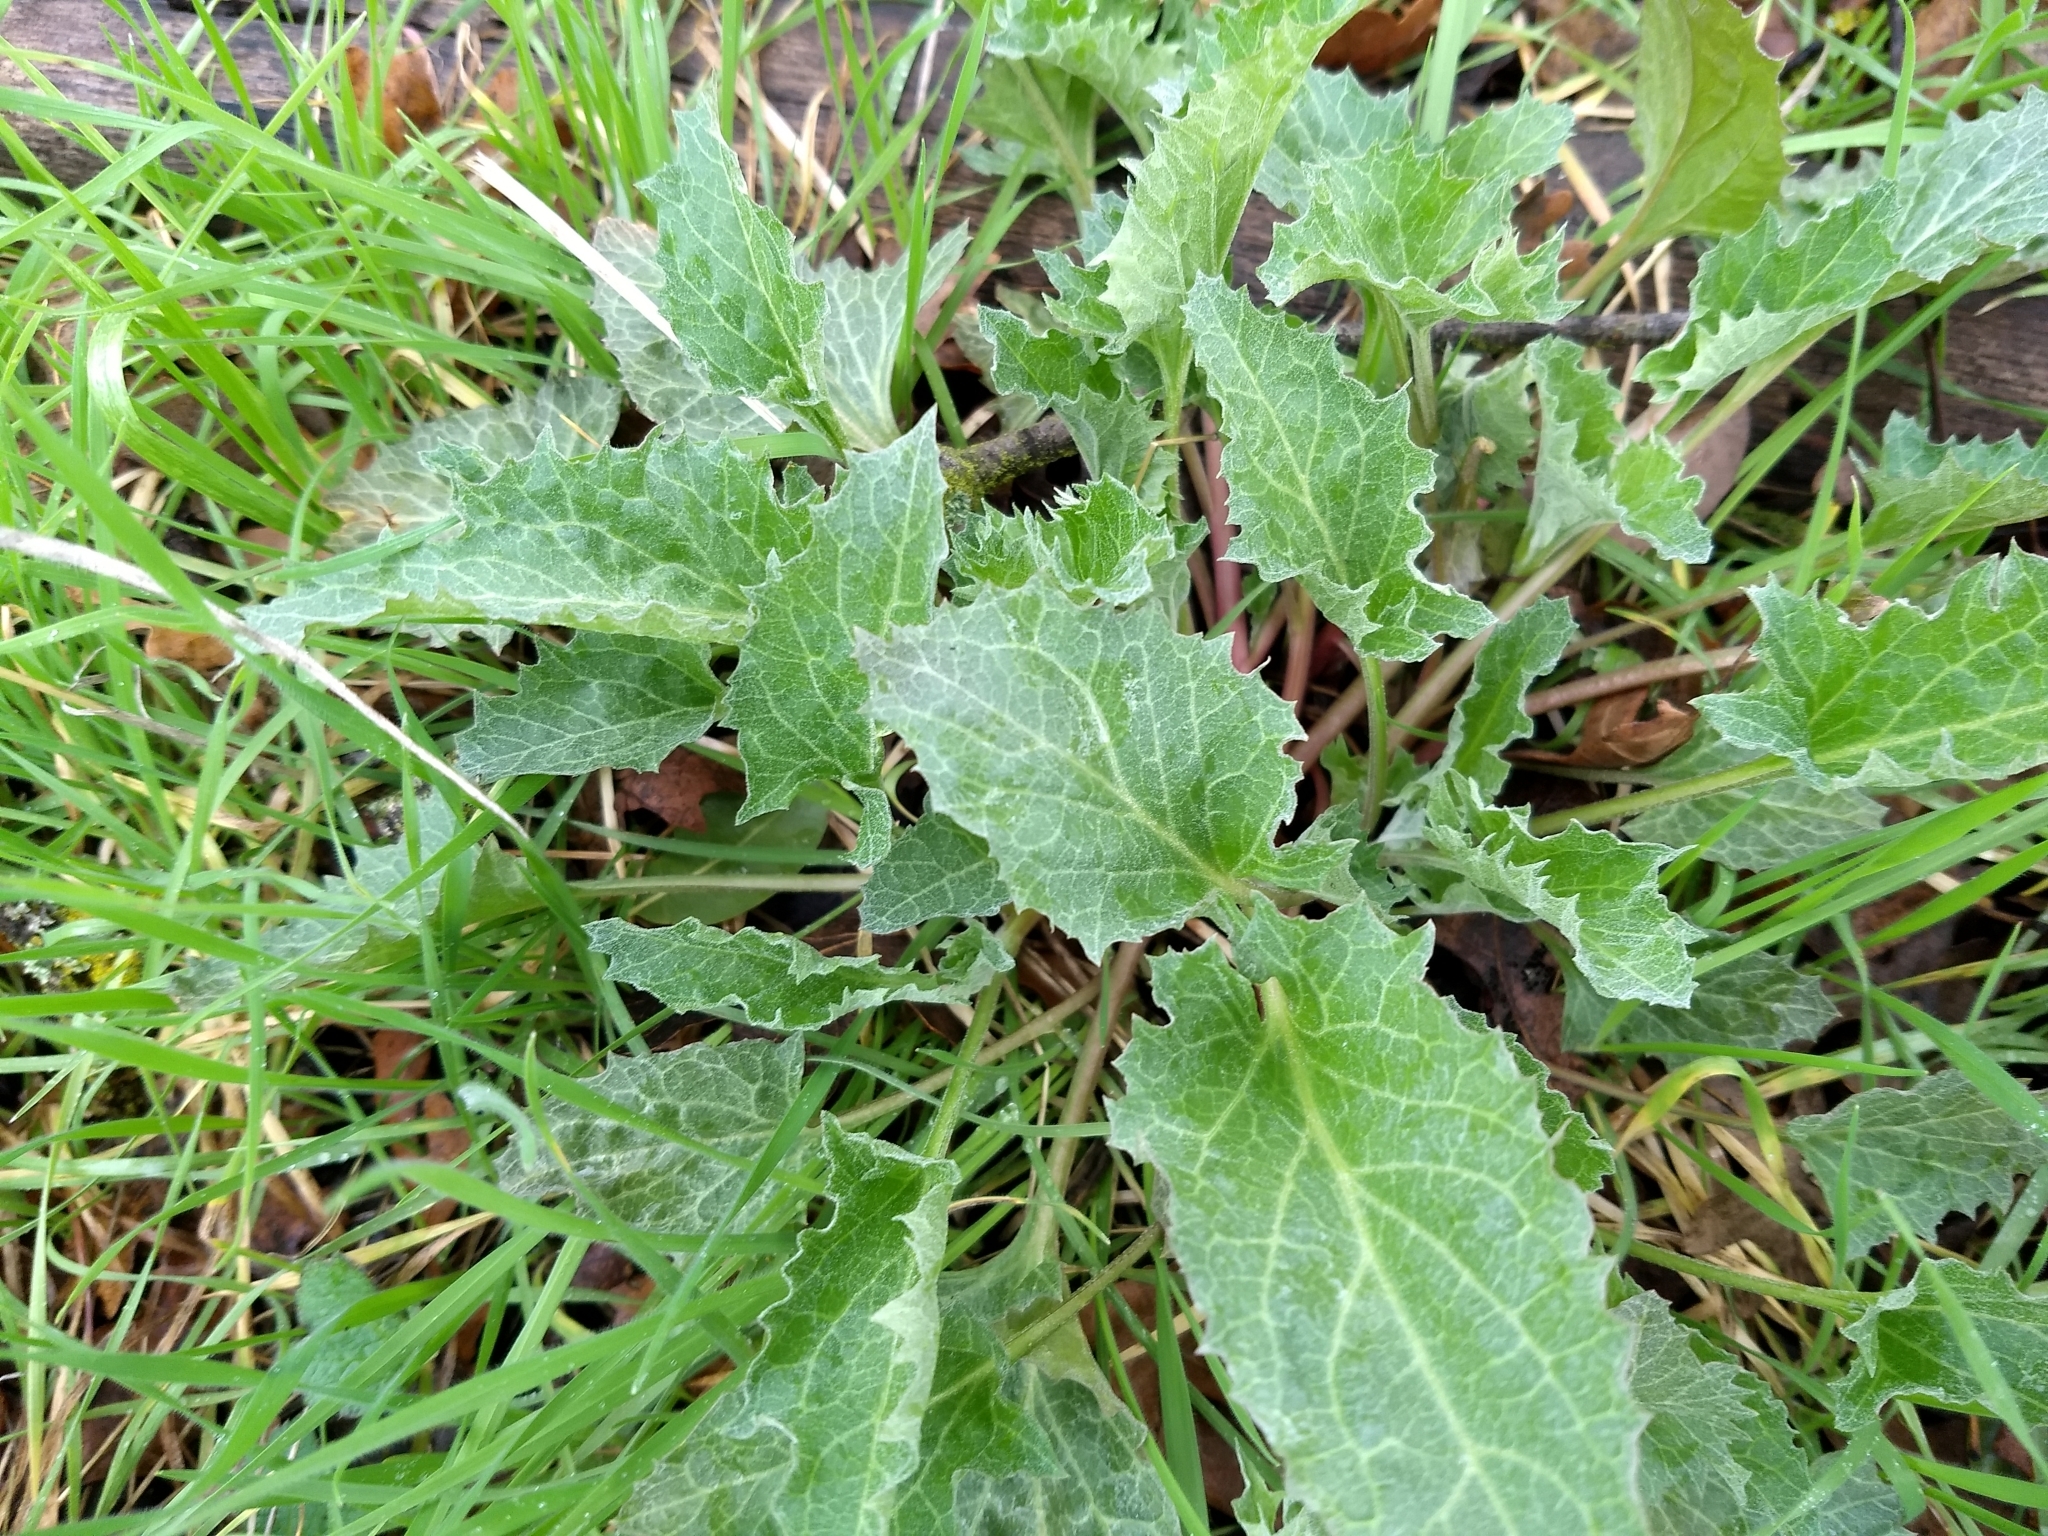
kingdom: Plantae
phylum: Tracheophyta
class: Magnoliopsida
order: Caryophyllales
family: Amaranthaceae
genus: Blitum
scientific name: Blitum californicum
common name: California goosefoot
